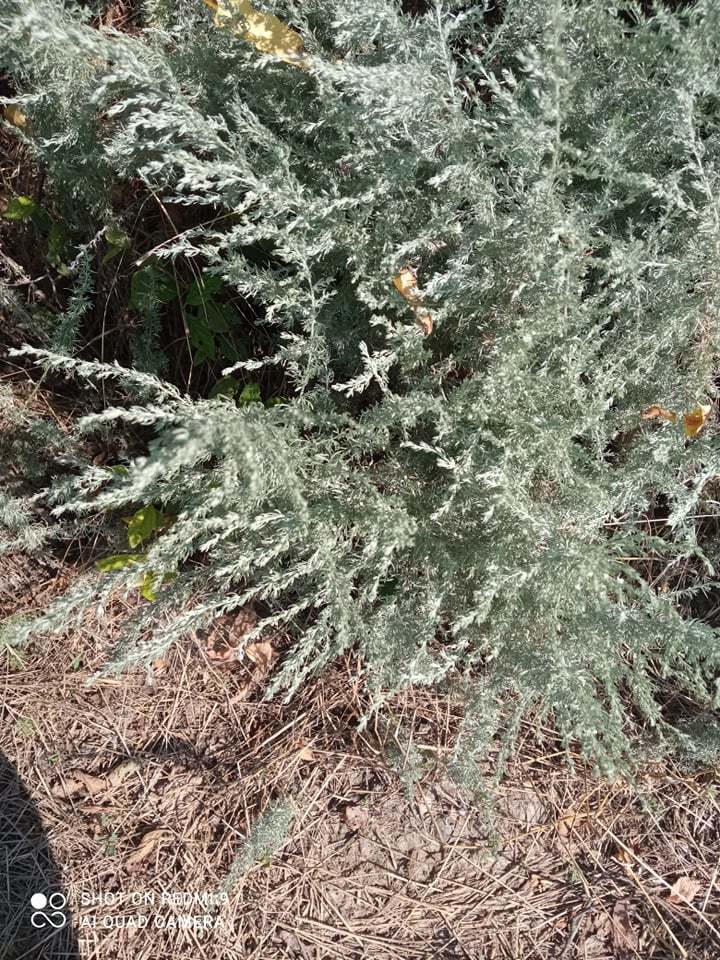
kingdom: Plantae
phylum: Tracheophyta
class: Magnoliopsida
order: Asterales
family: Asteraceae
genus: Artemisia
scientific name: Artemisia austriaca
